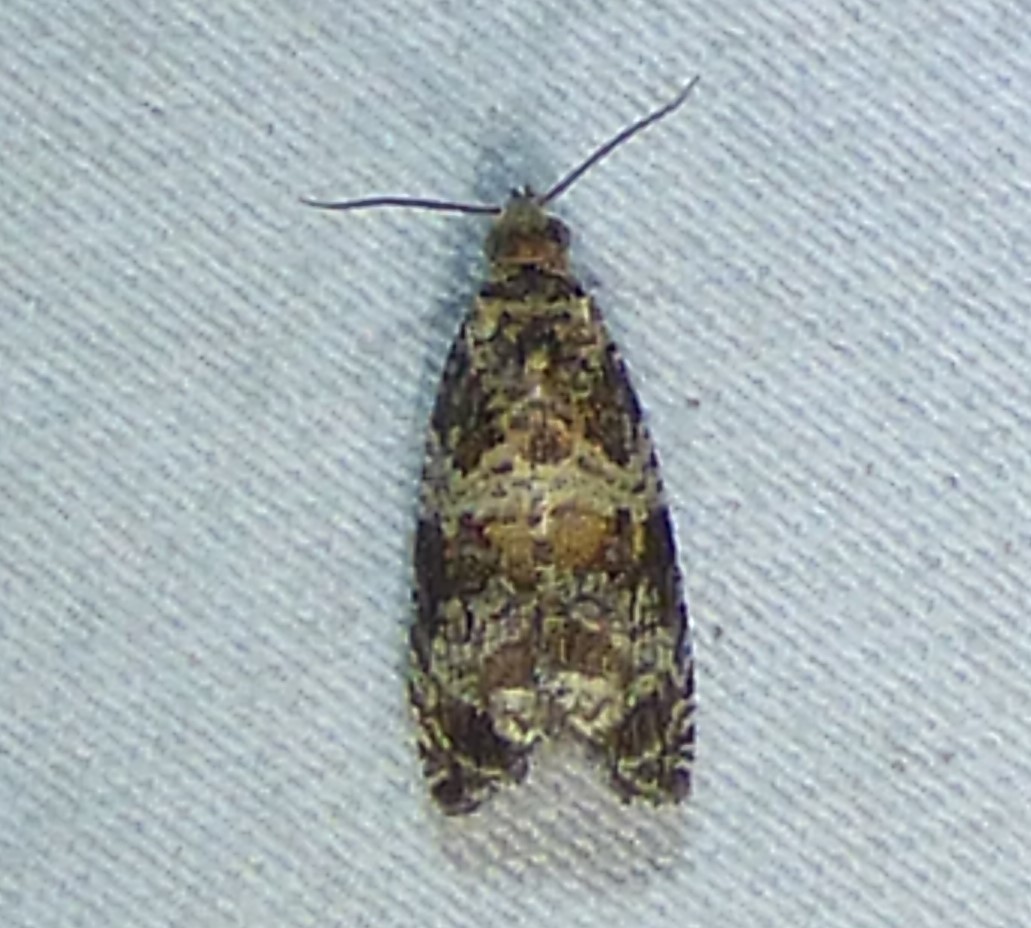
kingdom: Animalia
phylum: Arthropoda
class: Insecta
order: Lepidoptera
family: Tortricidae
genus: Celypha
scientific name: Celypha cespitana
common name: Thyme marble
